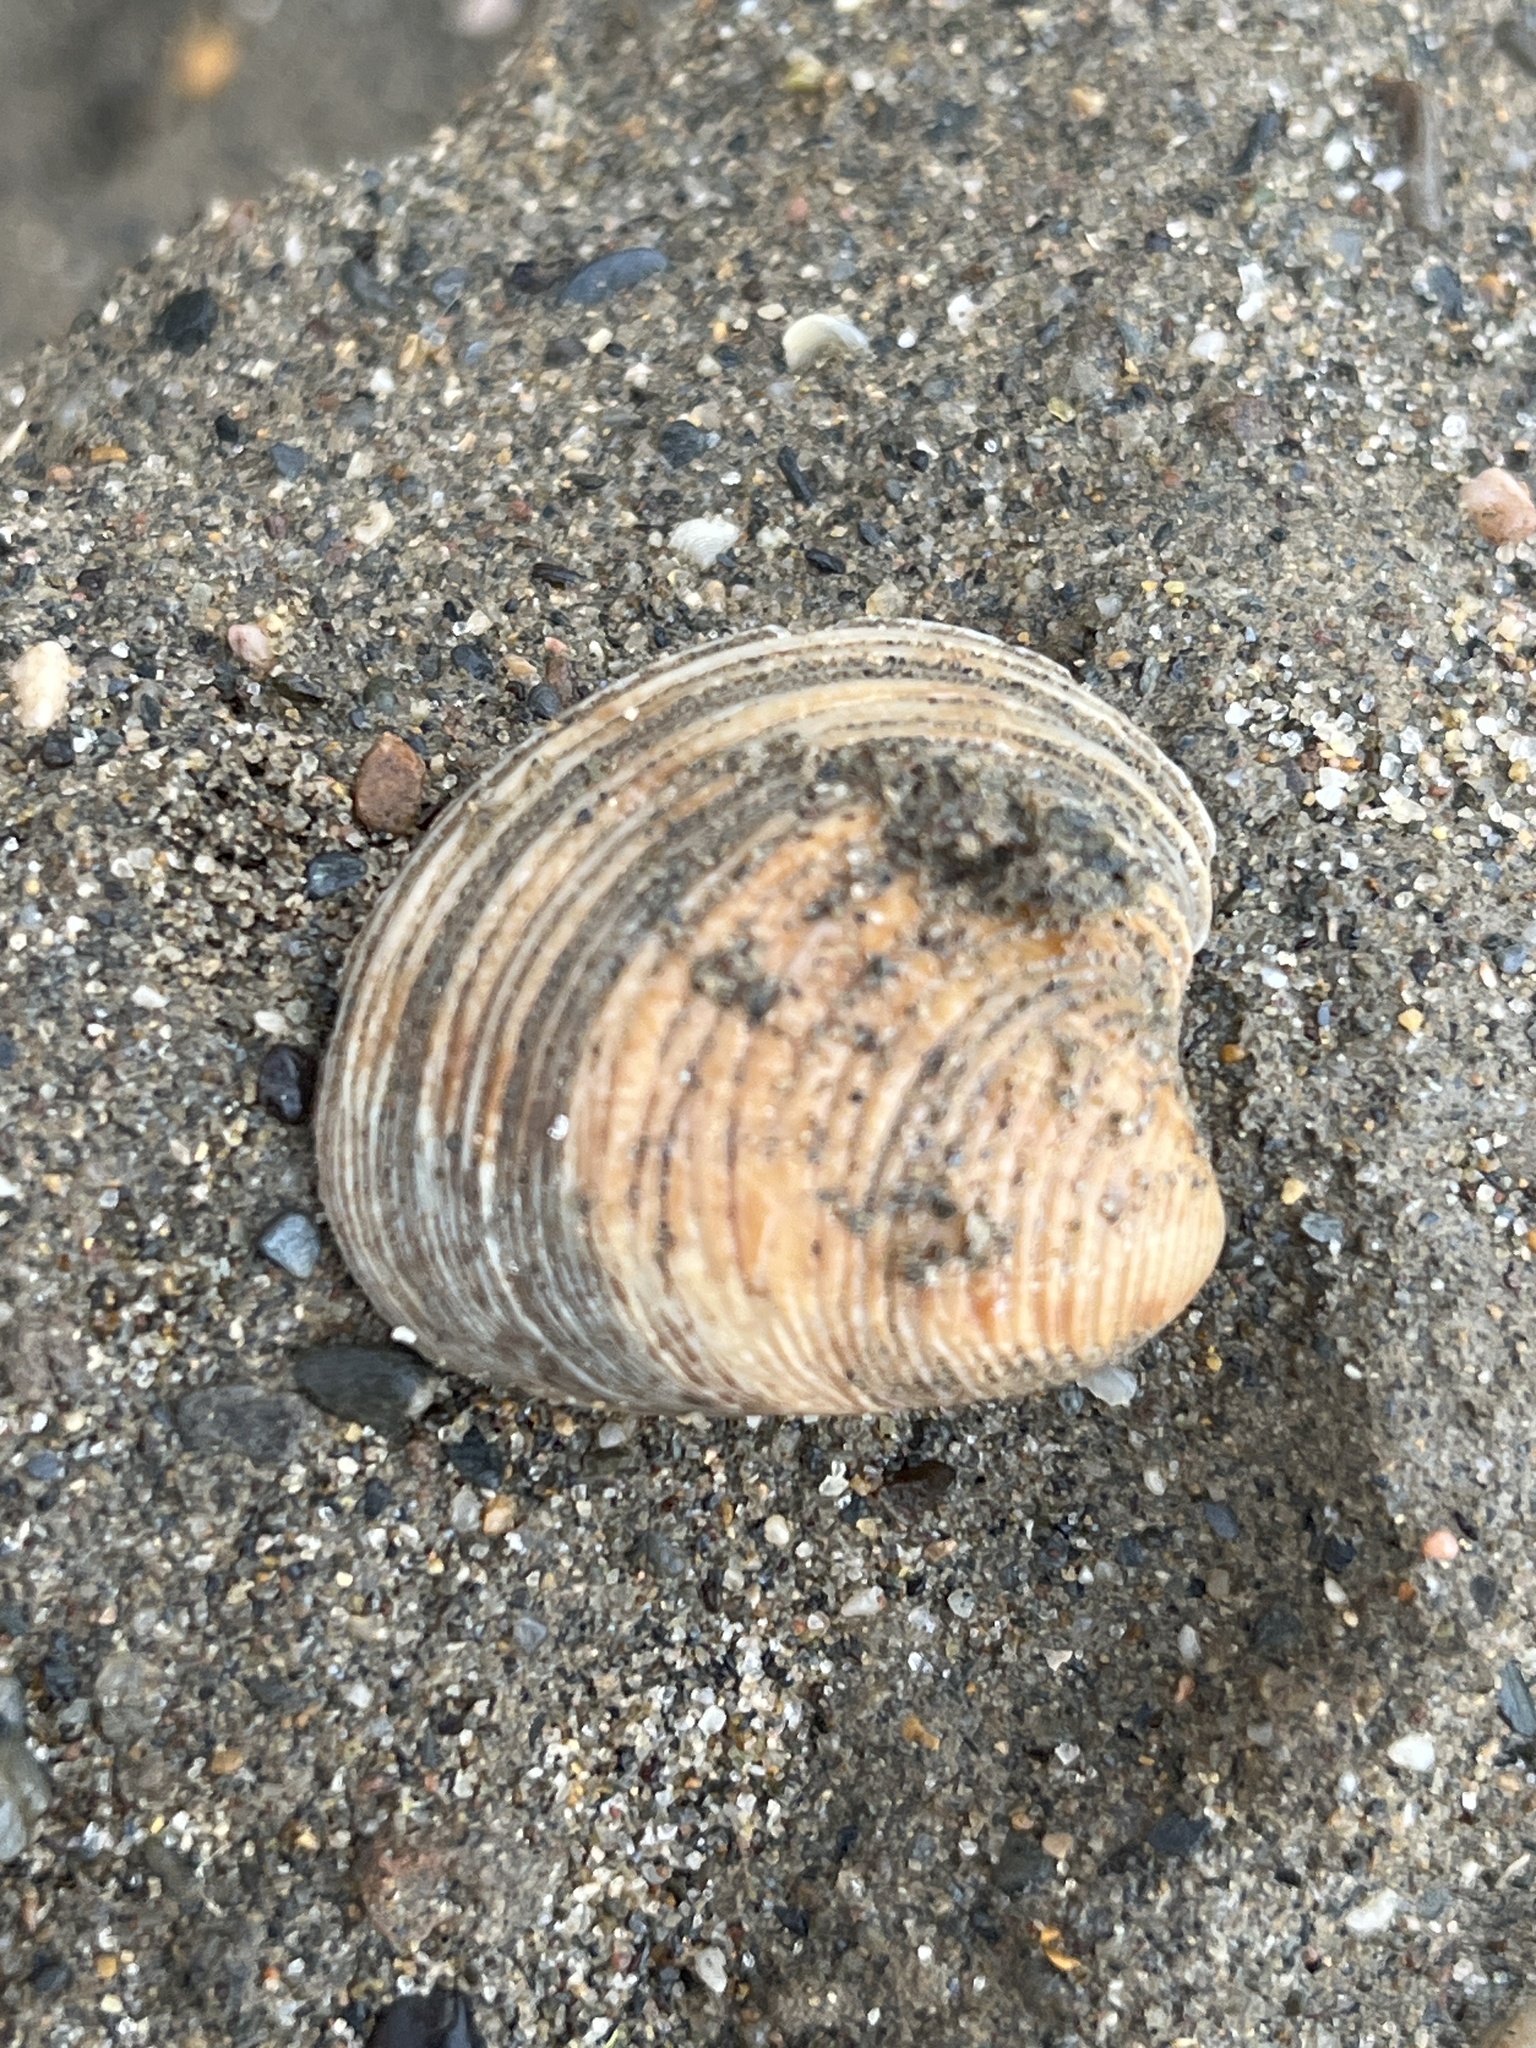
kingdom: Animalia
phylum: Mollusca
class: Bivalvia
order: Venerida
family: Veneridae
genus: Chamelea
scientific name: Chamelea gallina
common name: Chicken venus
